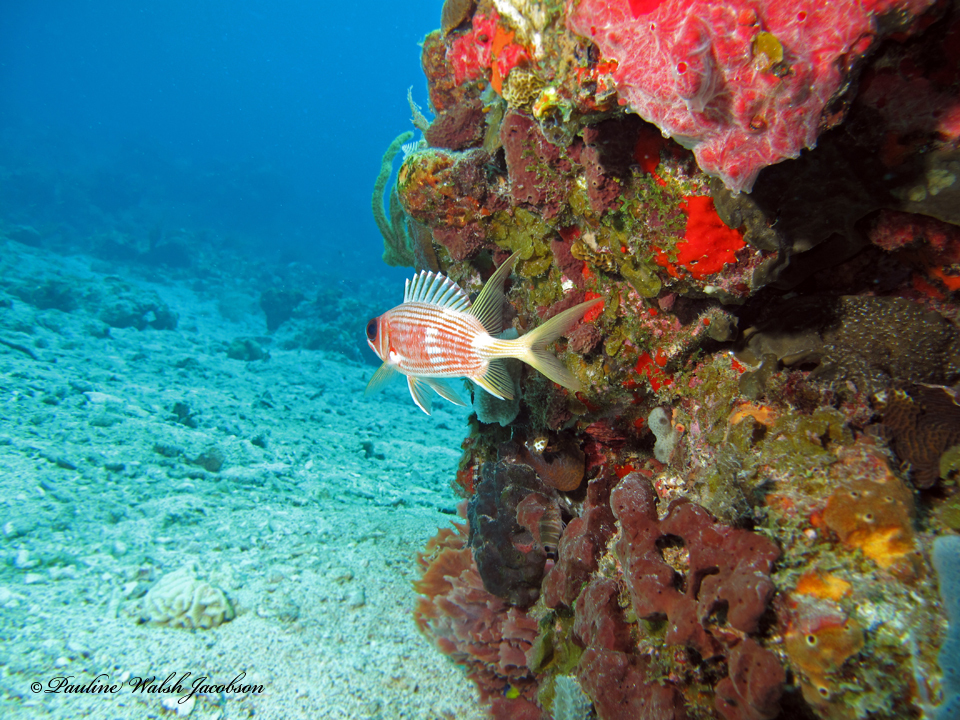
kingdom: Animalia
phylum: Chordata
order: Beryciformes
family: Holocentridae
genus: Holocentrus
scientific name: Holocentrus rufus
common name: Longspine squirrelfish
